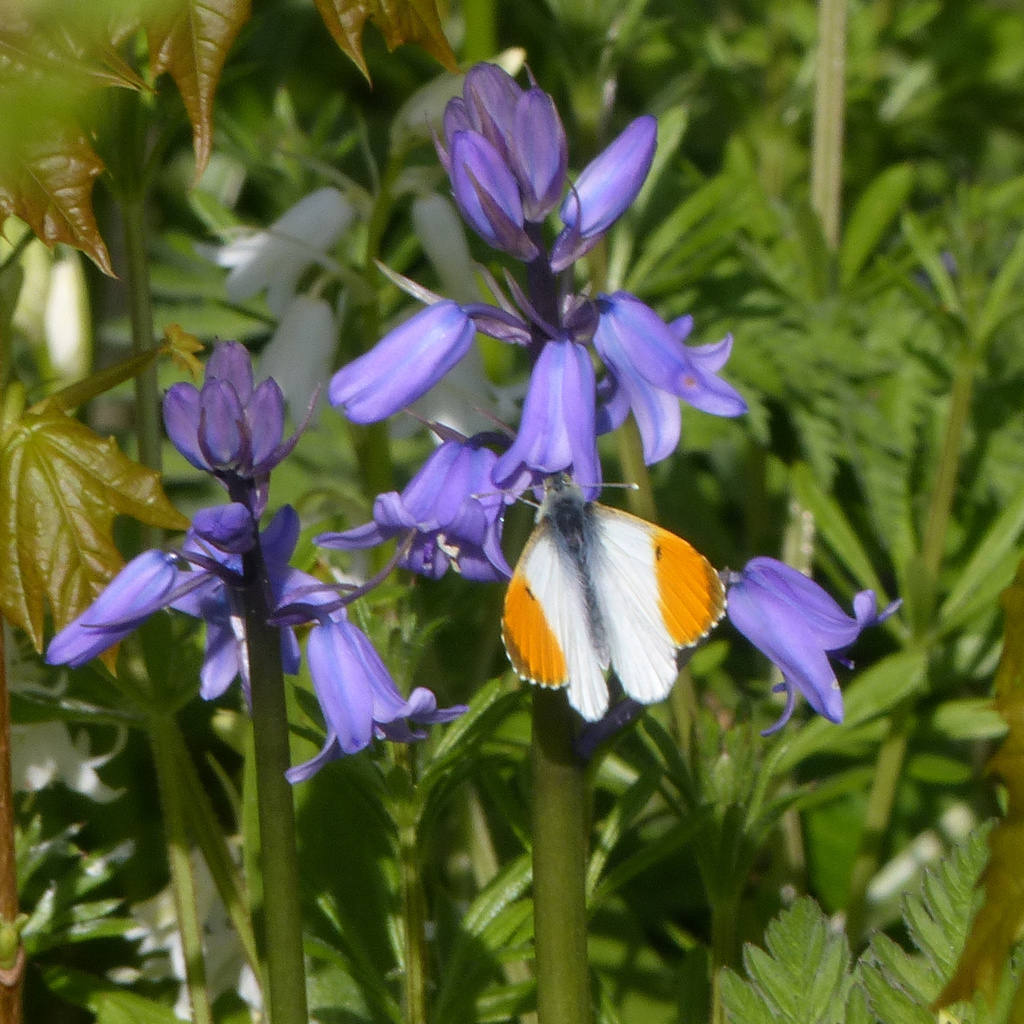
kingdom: Animalia
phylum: Arthropoda
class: Insecta
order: Lepidoptera
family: Pieridae
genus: Anthocharis
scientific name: Anthocharis cardamines
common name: Orange-tip
